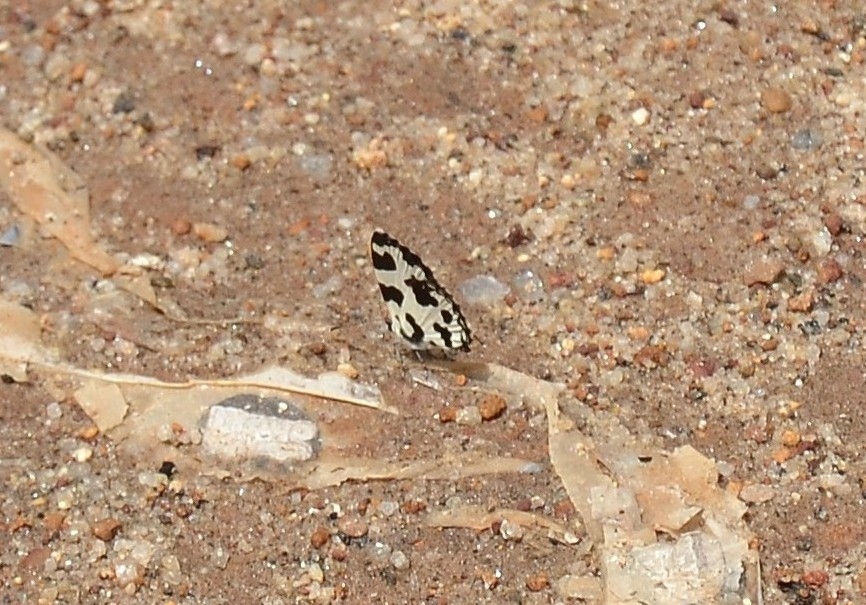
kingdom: Animalia
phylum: Arthropoda
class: Insecta
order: Lepidoptera
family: Lycaenidae
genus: Caleta
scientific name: Caleta decidia
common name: Angled pierrot
